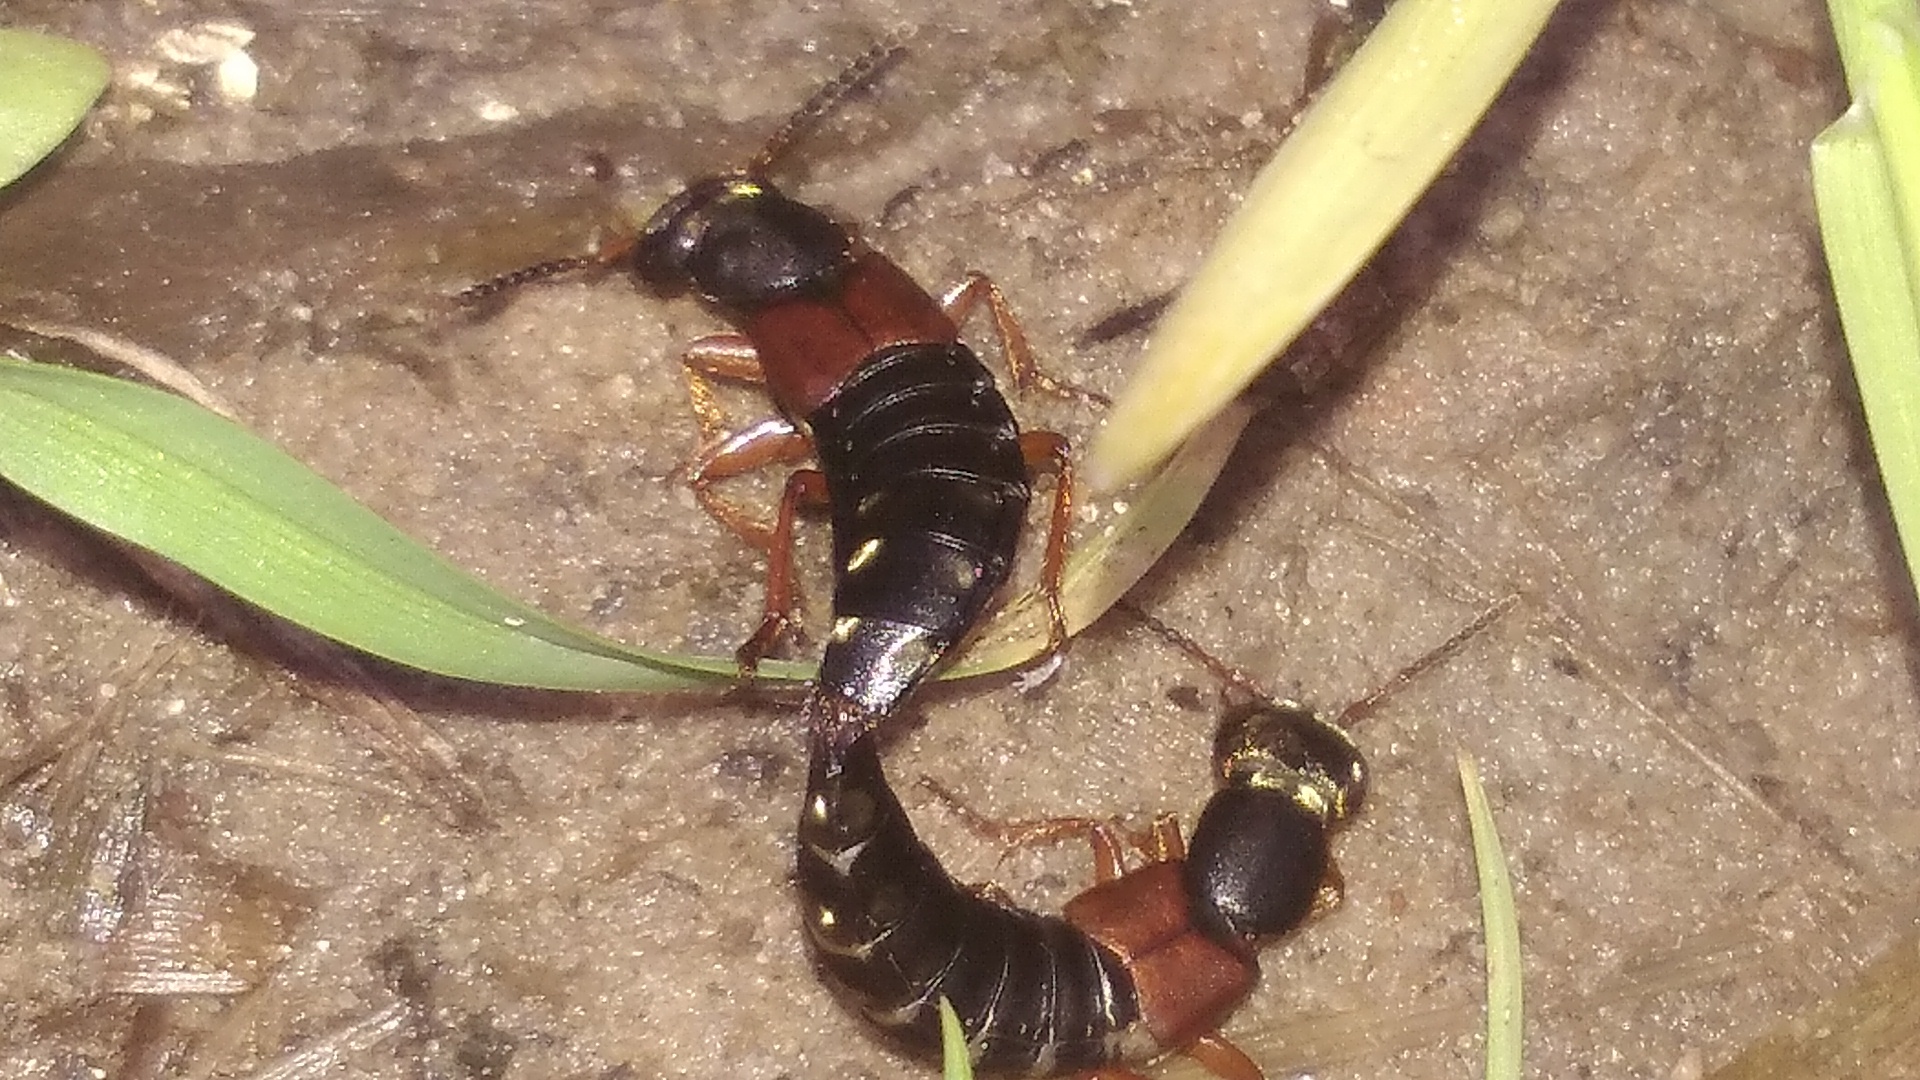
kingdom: Animalia
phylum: Arthropoda
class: Insecta
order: Coleoptera
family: Staphylinidae
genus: Staphylinus
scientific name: Staphylinus caesareus
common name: Staph beetle
